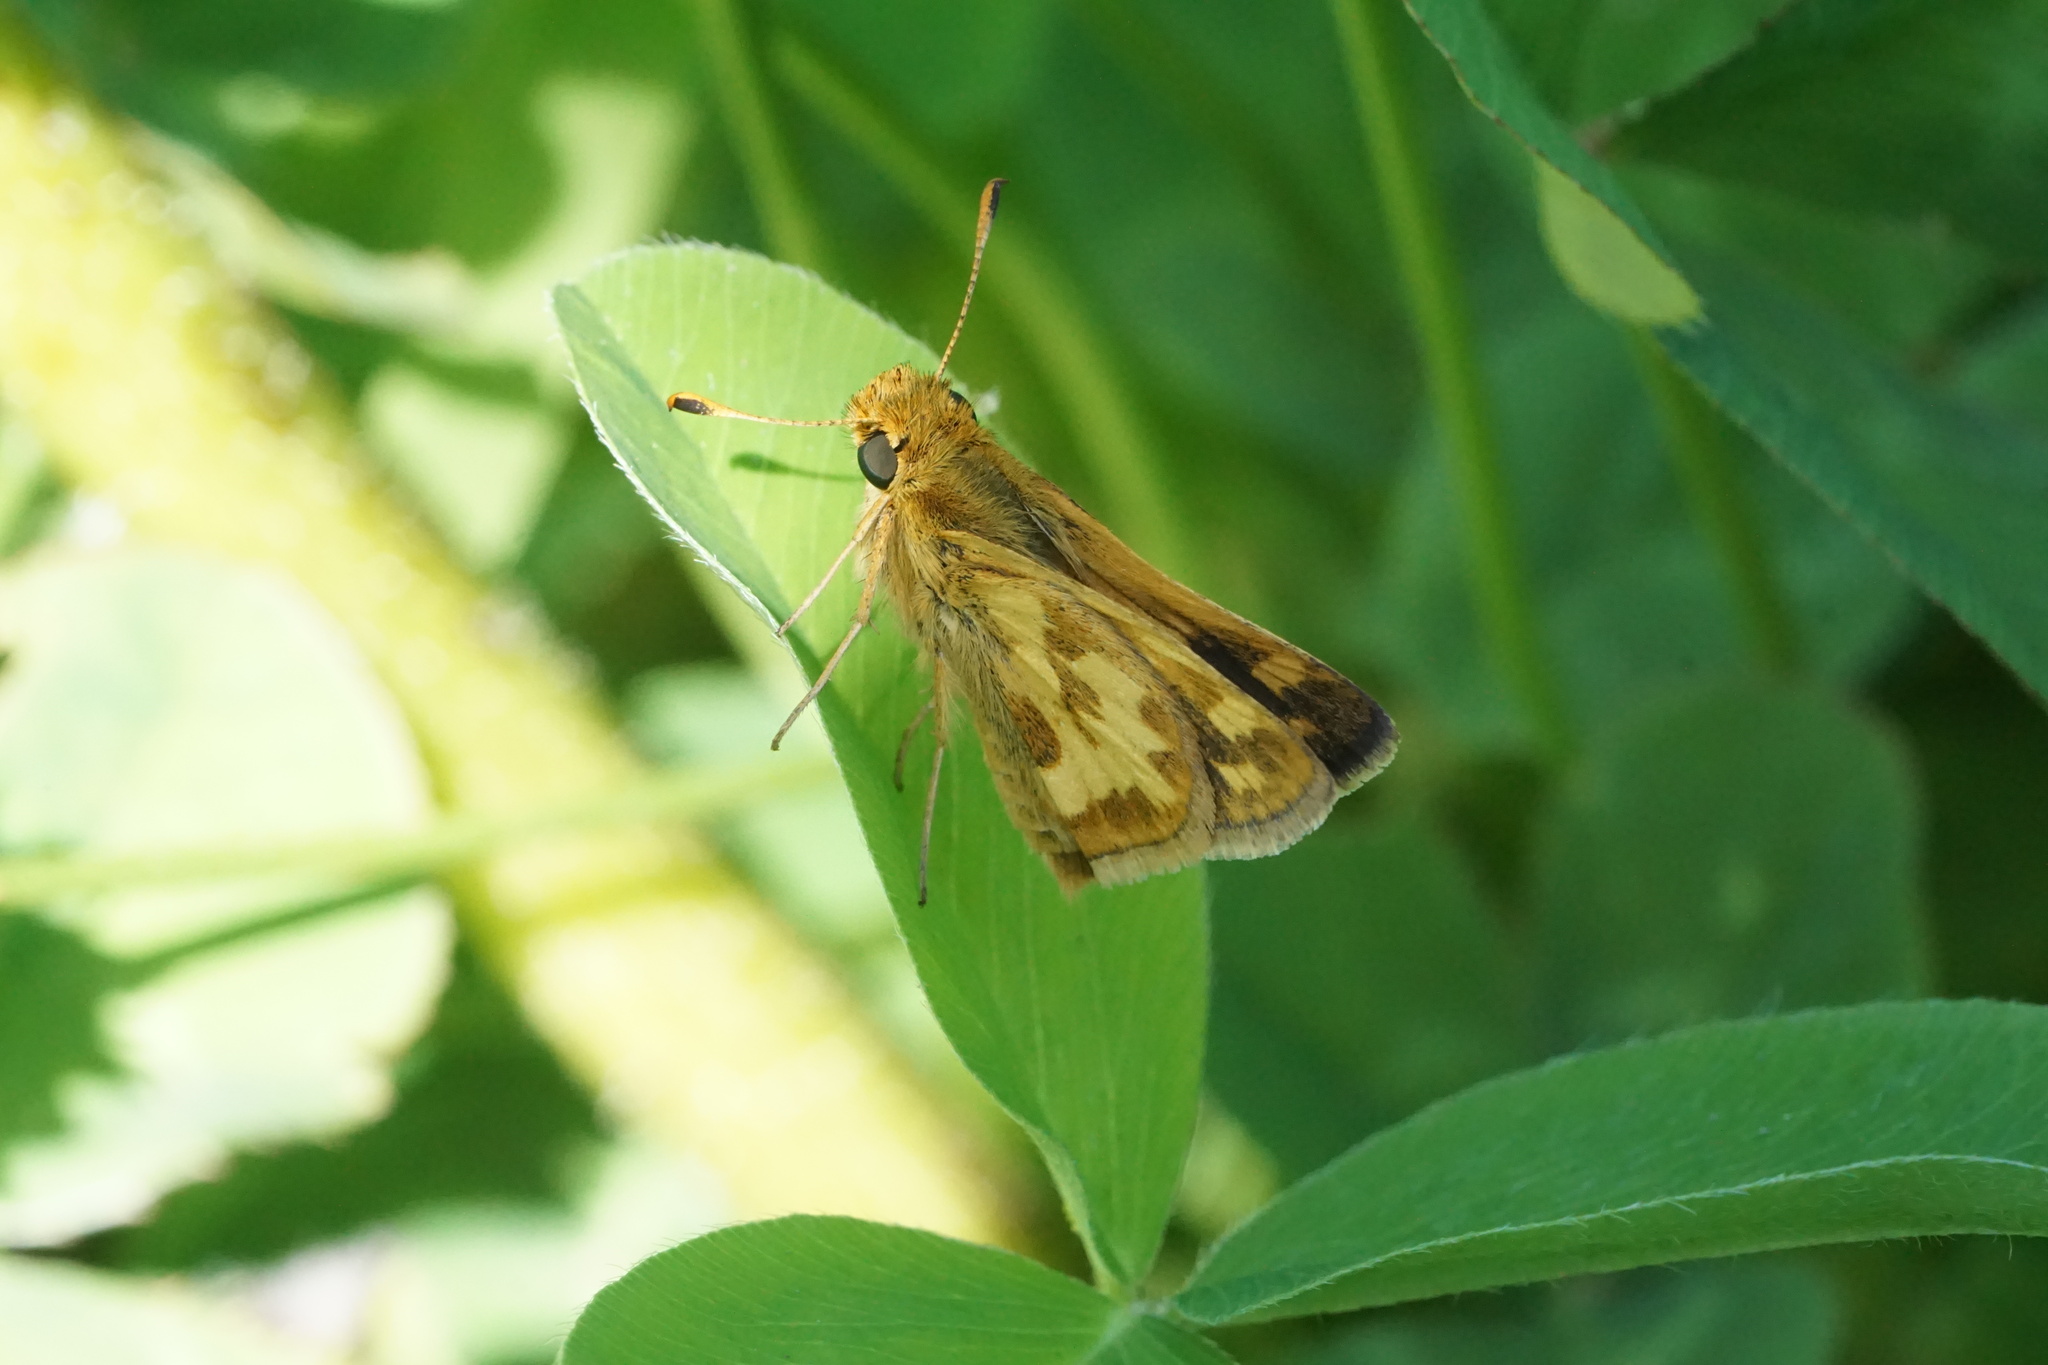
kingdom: Animalia
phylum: Arthropoda
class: Insecta
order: Lepidoptera
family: Hesperiidae
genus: Polites
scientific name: Polites coras
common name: Peck's skipper
